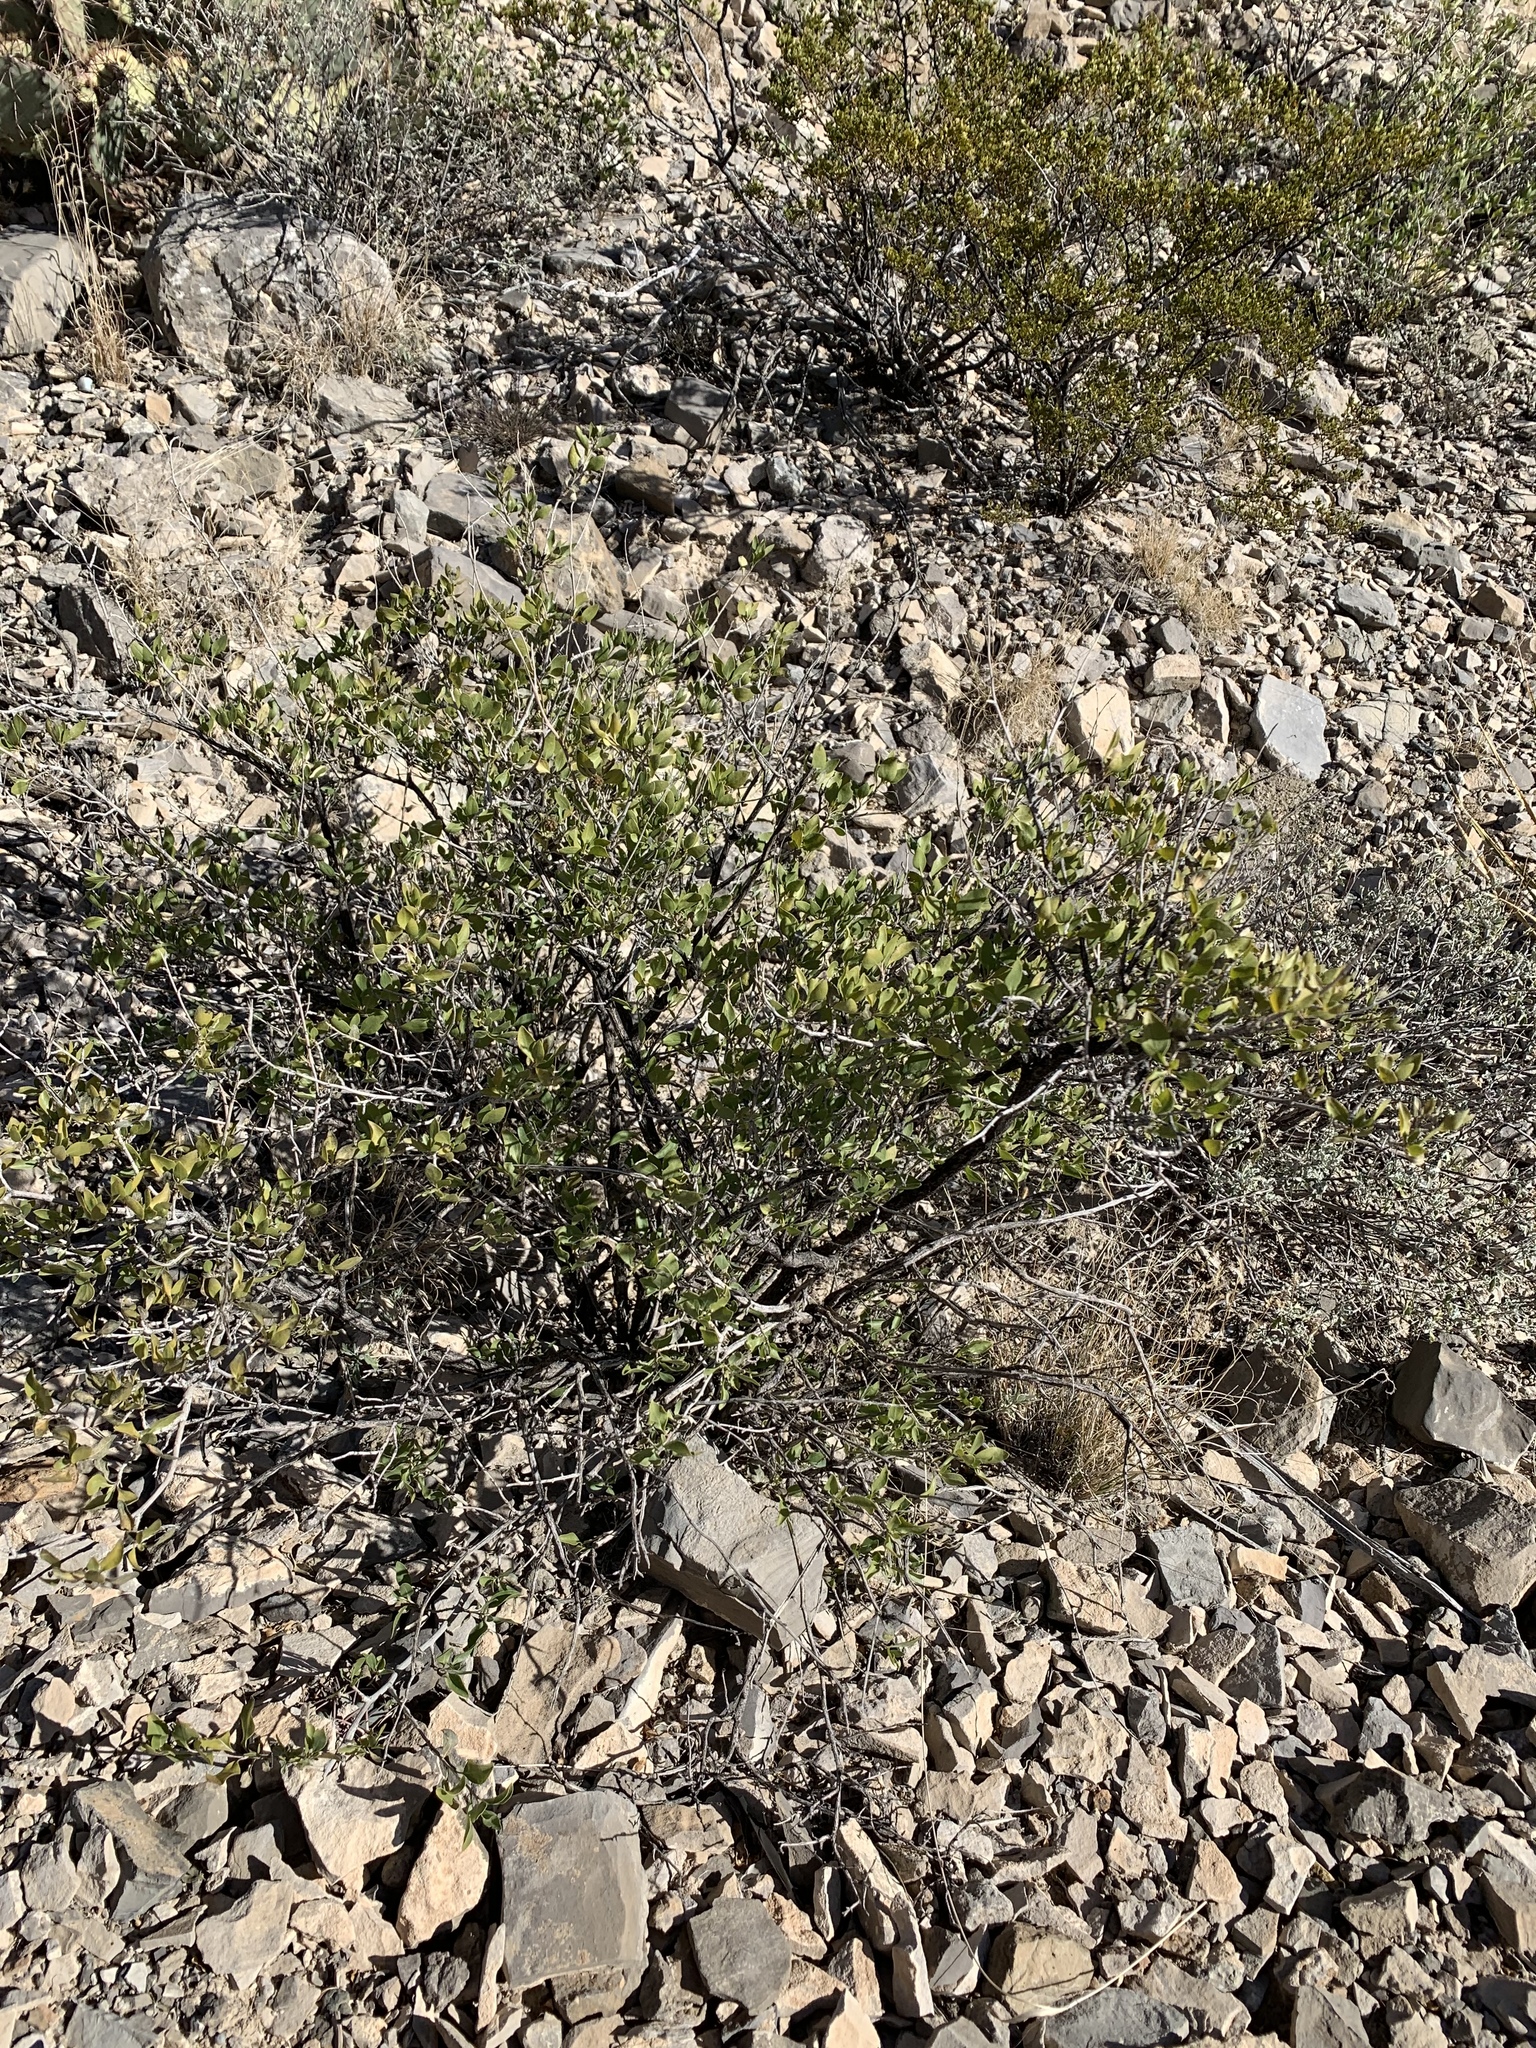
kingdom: Plantae
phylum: Tracheophyta
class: Magnoliopsida
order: Asterales
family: Asteraceae
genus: Flourensia
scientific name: Flourensia cernua
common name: Varnishbush
